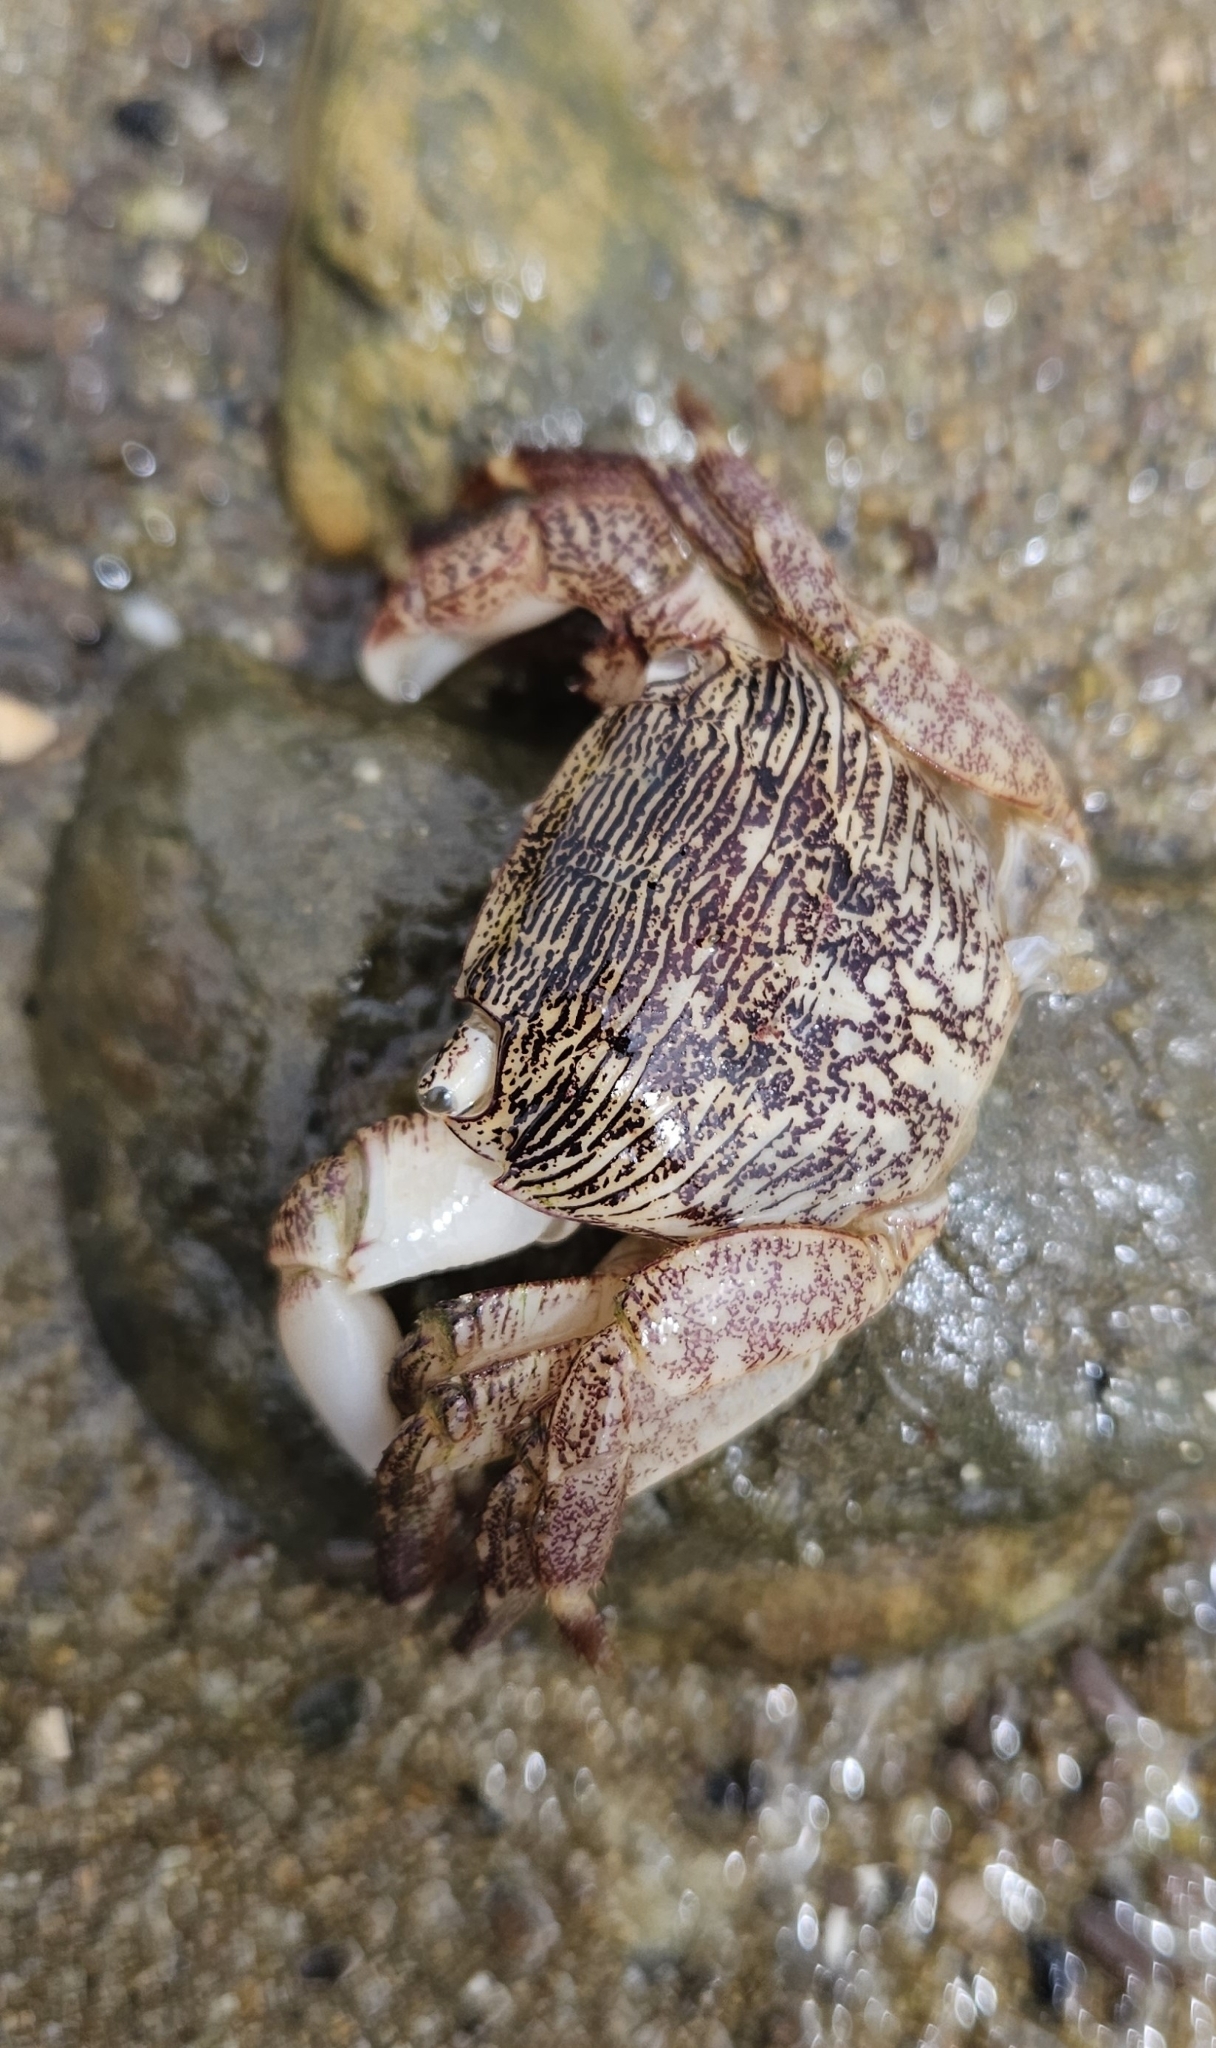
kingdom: Animalia
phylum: Arthropoda
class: Malacostraca
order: Decapoda
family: Grapsidae
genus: Pachygrapsus
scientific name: Pachygrapsus crassipes
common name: Striped shore crab
